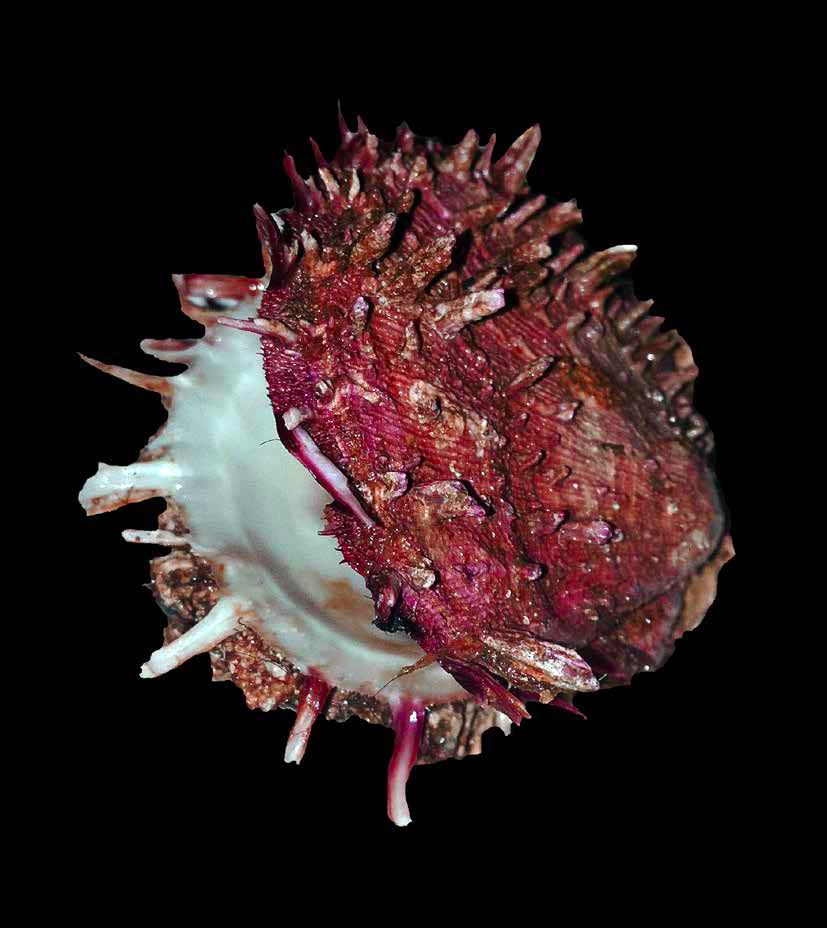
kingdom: Animalia
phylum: Mollusca
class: Bivalvia
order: Pectinida
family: Spondylidae
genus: Spondylus
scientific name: Spondylus gaederopus
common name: European thorny oyster
